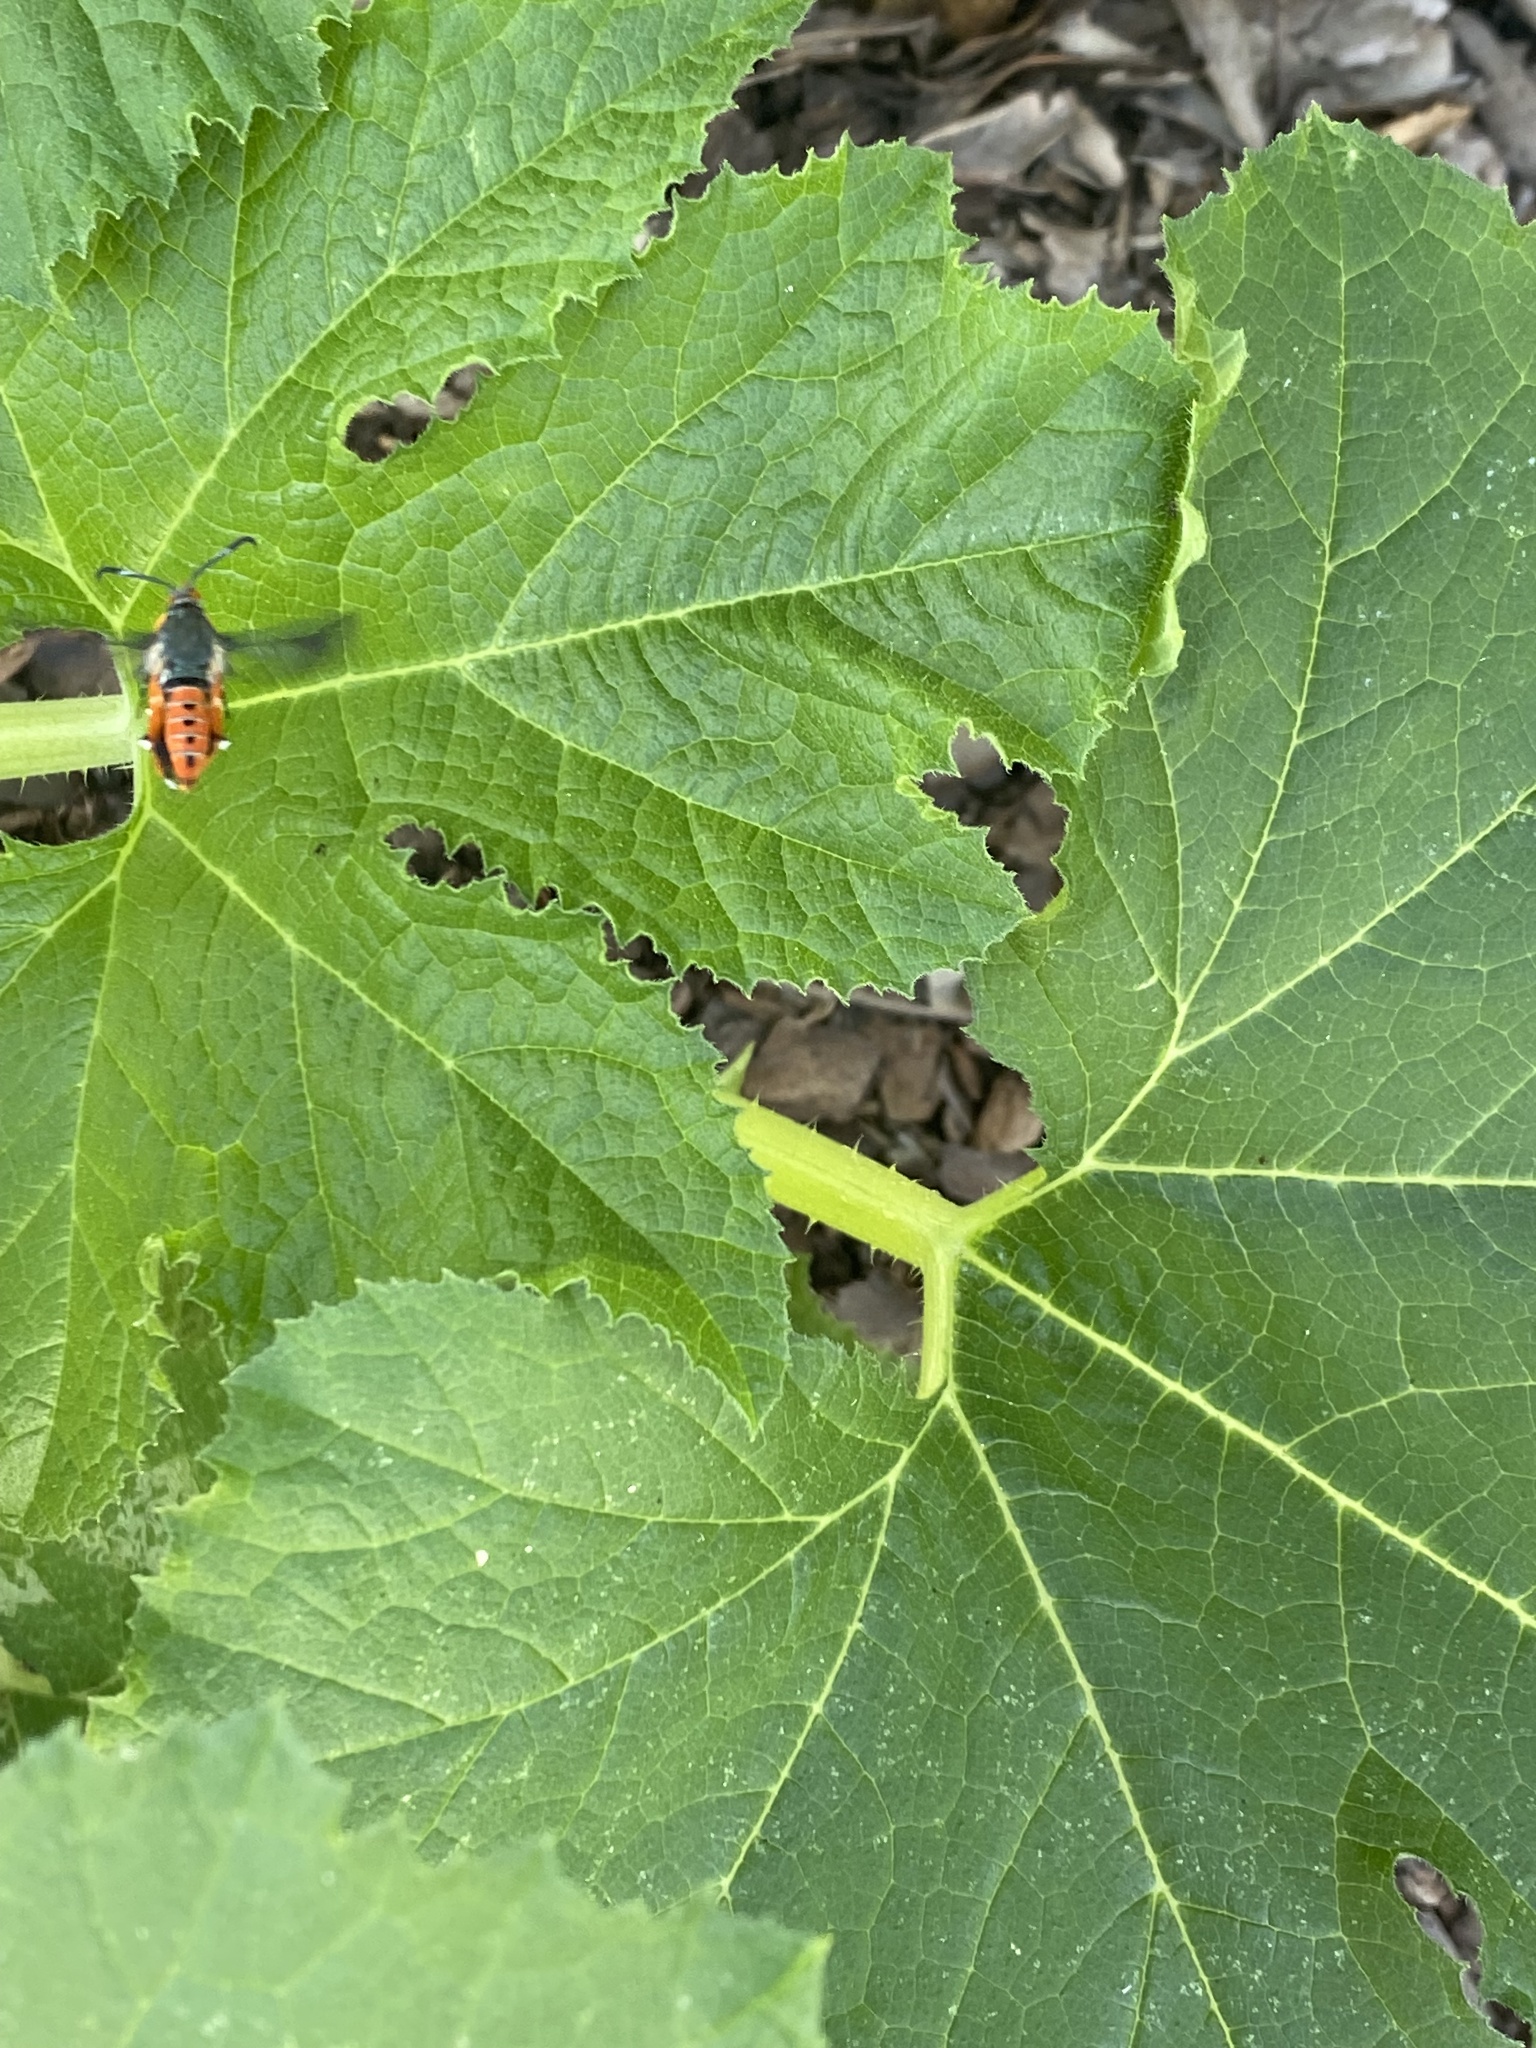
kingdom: Animalia
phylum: Arthropoda
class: Insecta
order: Lepidoptera
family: Sesiidae
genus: Eichlinia
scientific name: Eichlinia cucurbitae
